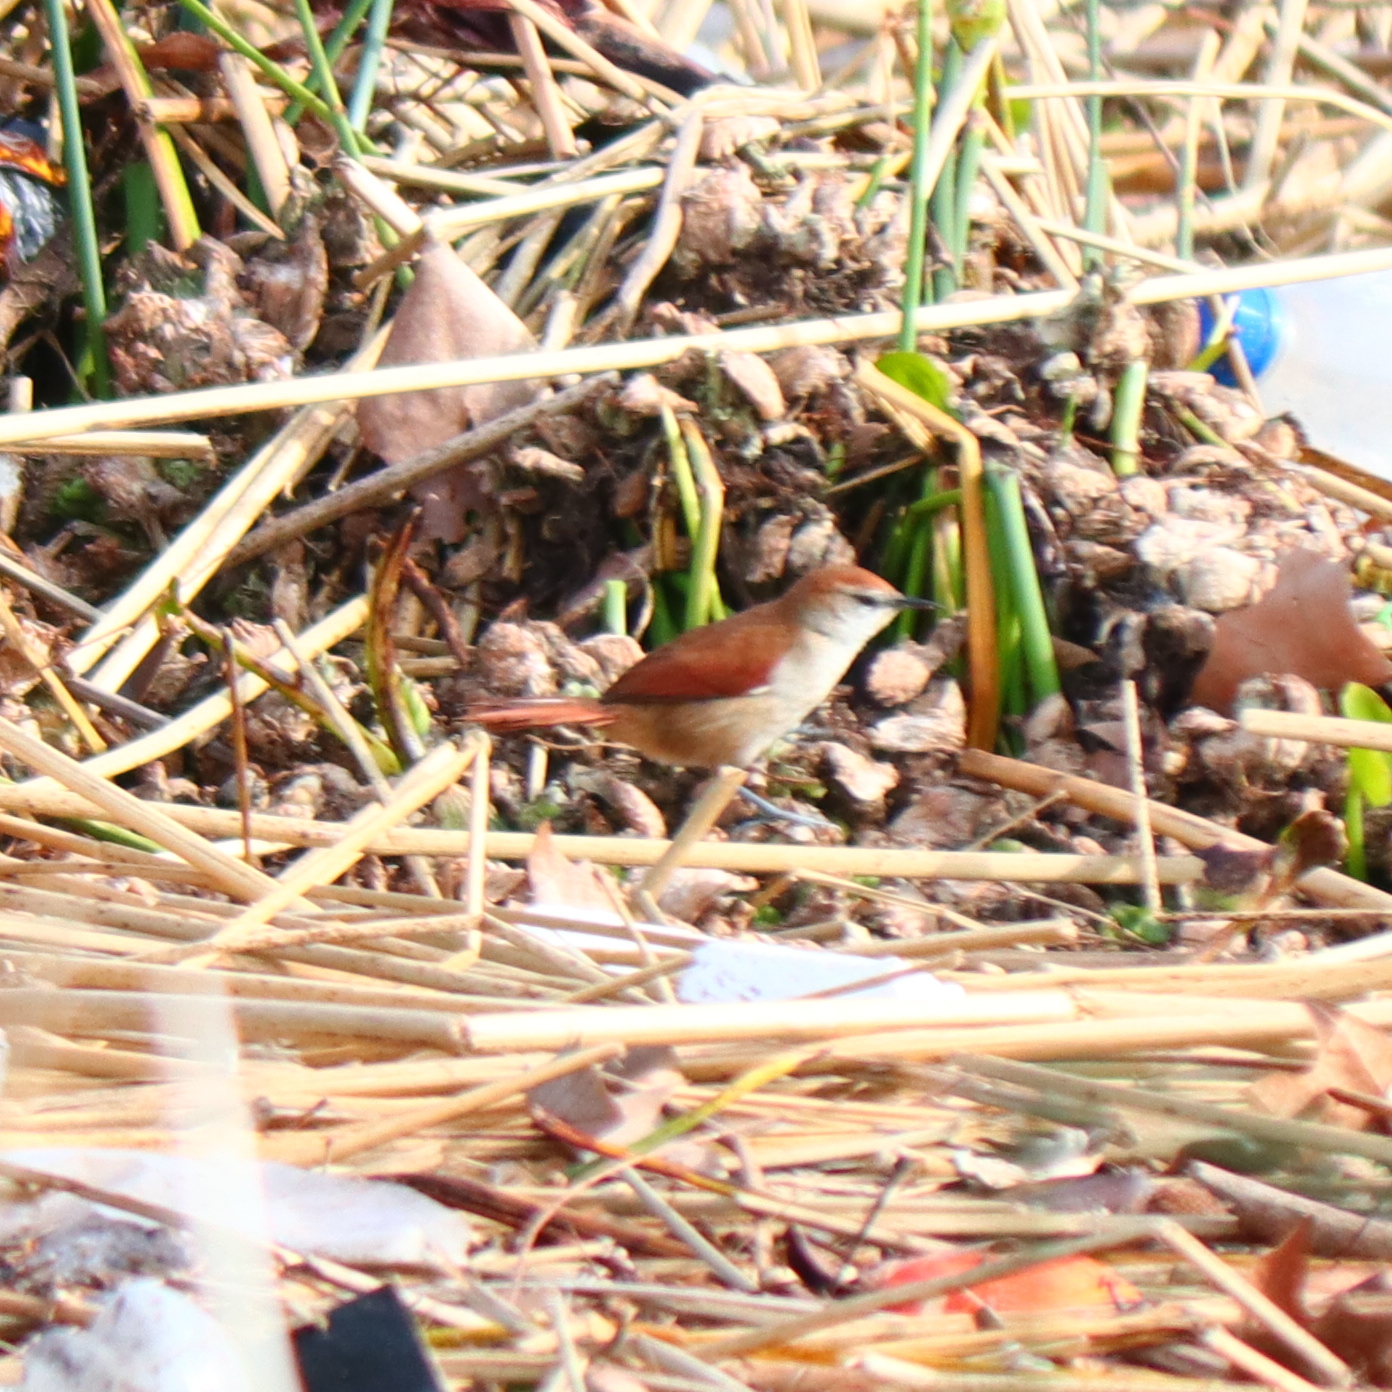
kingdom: Animalia
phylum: Chordata
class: Aves
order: Passeriformes
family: Furnariidae
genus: Certhiaxis
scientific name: Certhiaxis cinnamomeus
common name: Yellow-chinned spinetail
